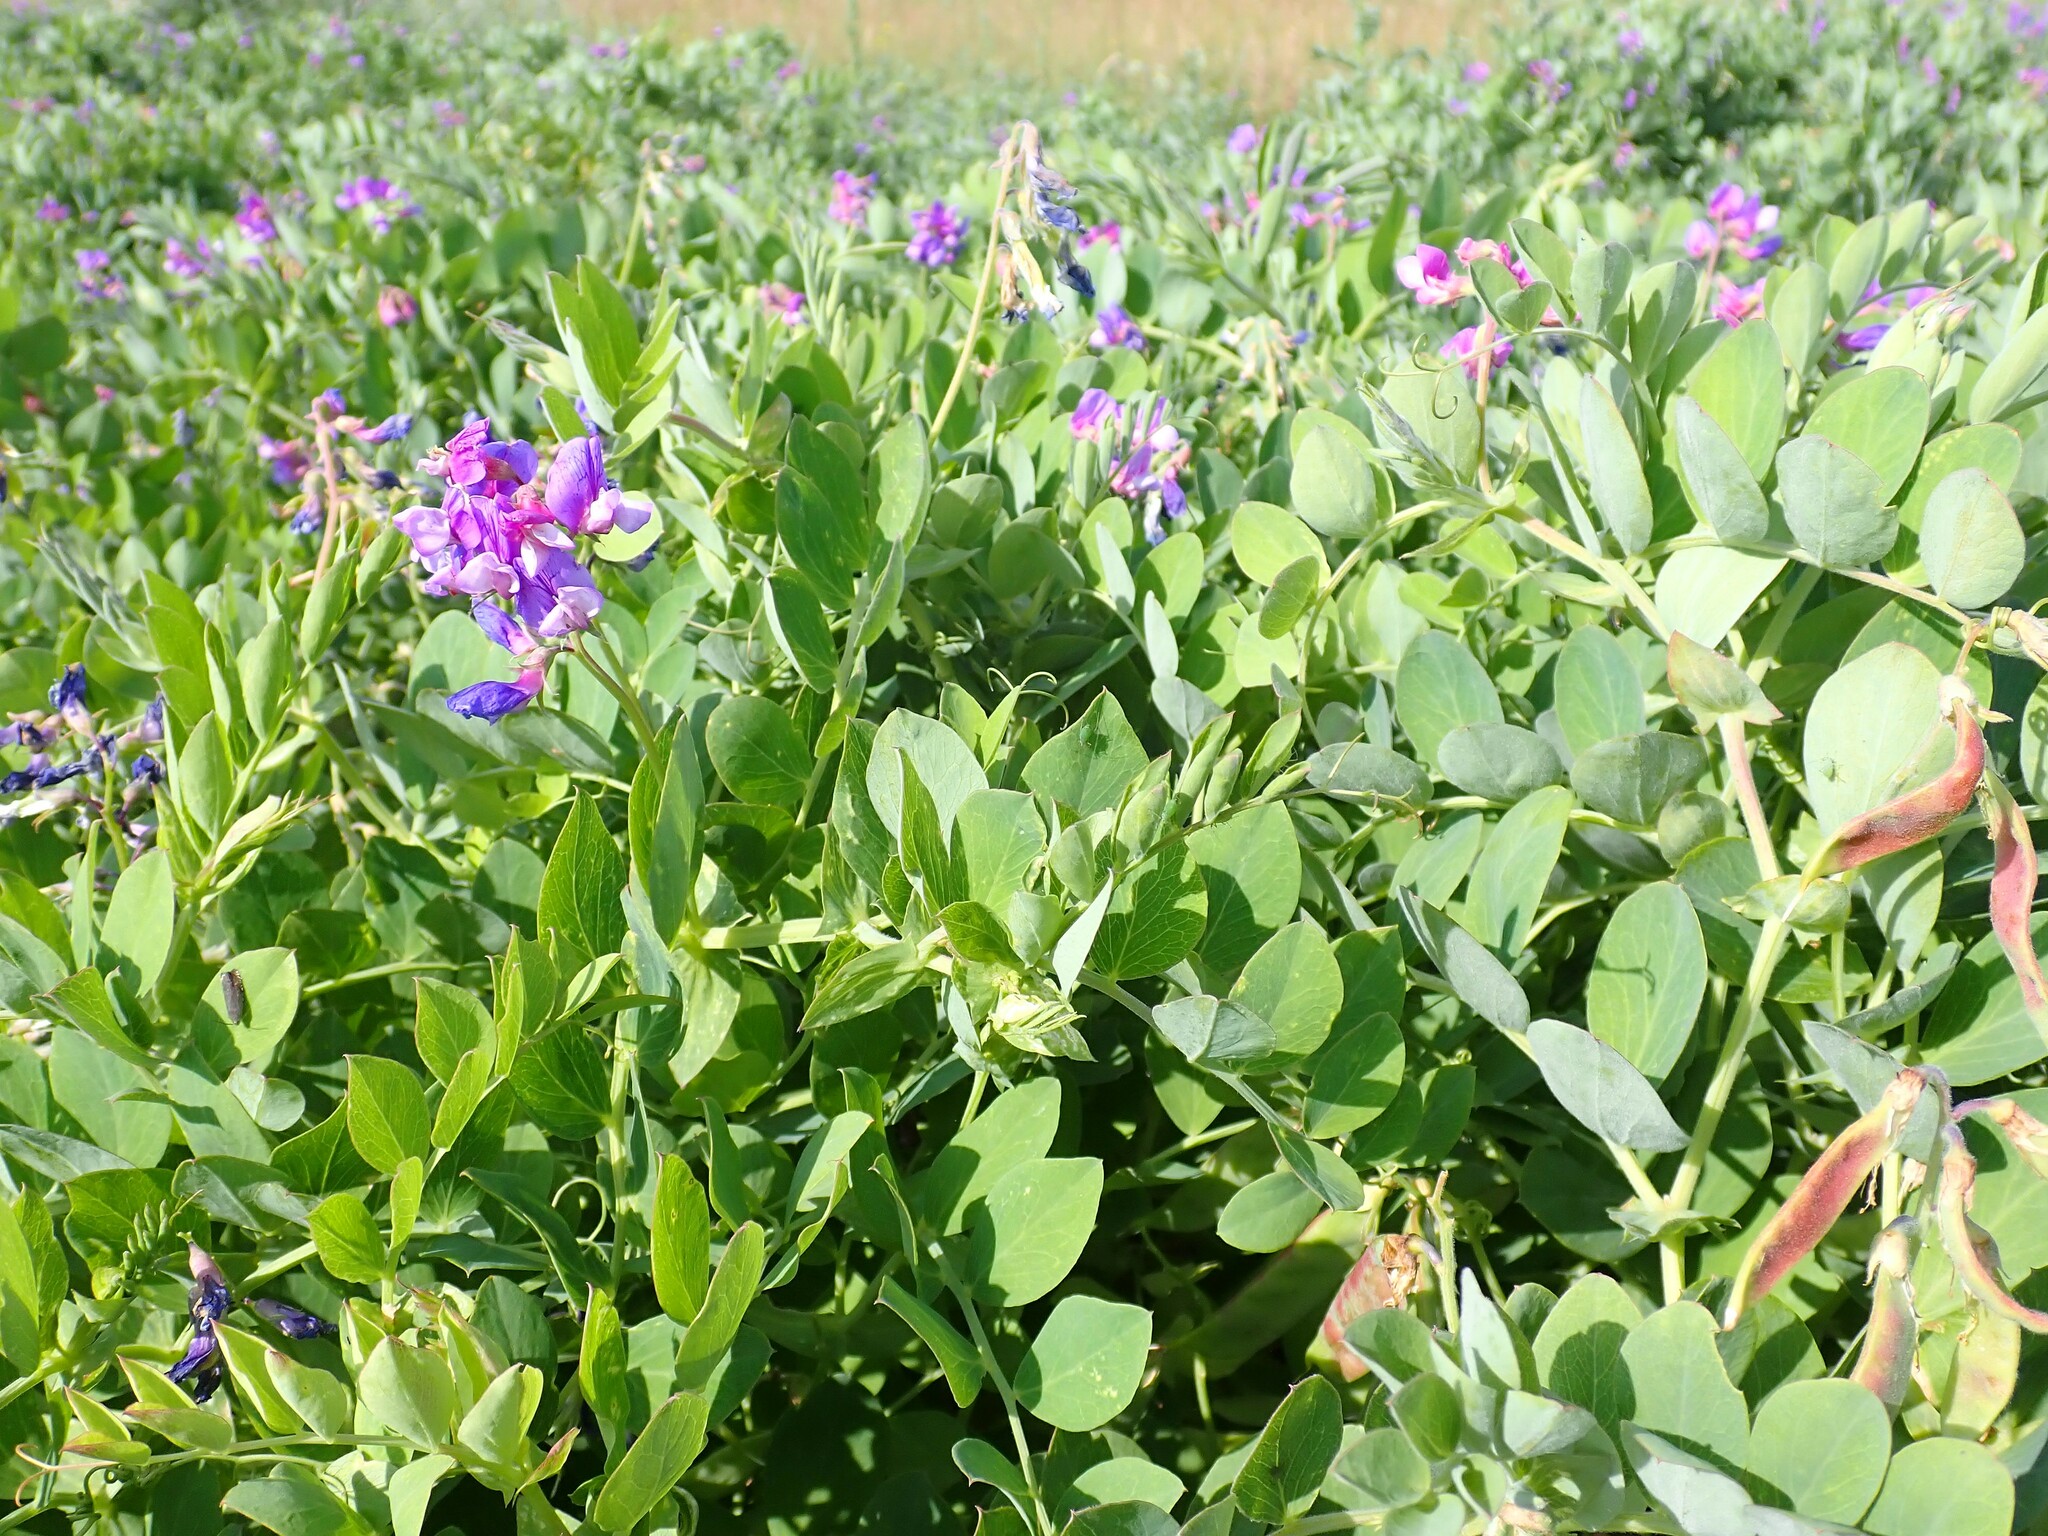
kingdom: Plantae
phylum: Tracheophyta
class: Magnoliopsida
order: Fabales
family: Fabaceae
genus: Lathyrus
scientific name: Lathyrus japonicus
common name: Sea pea
